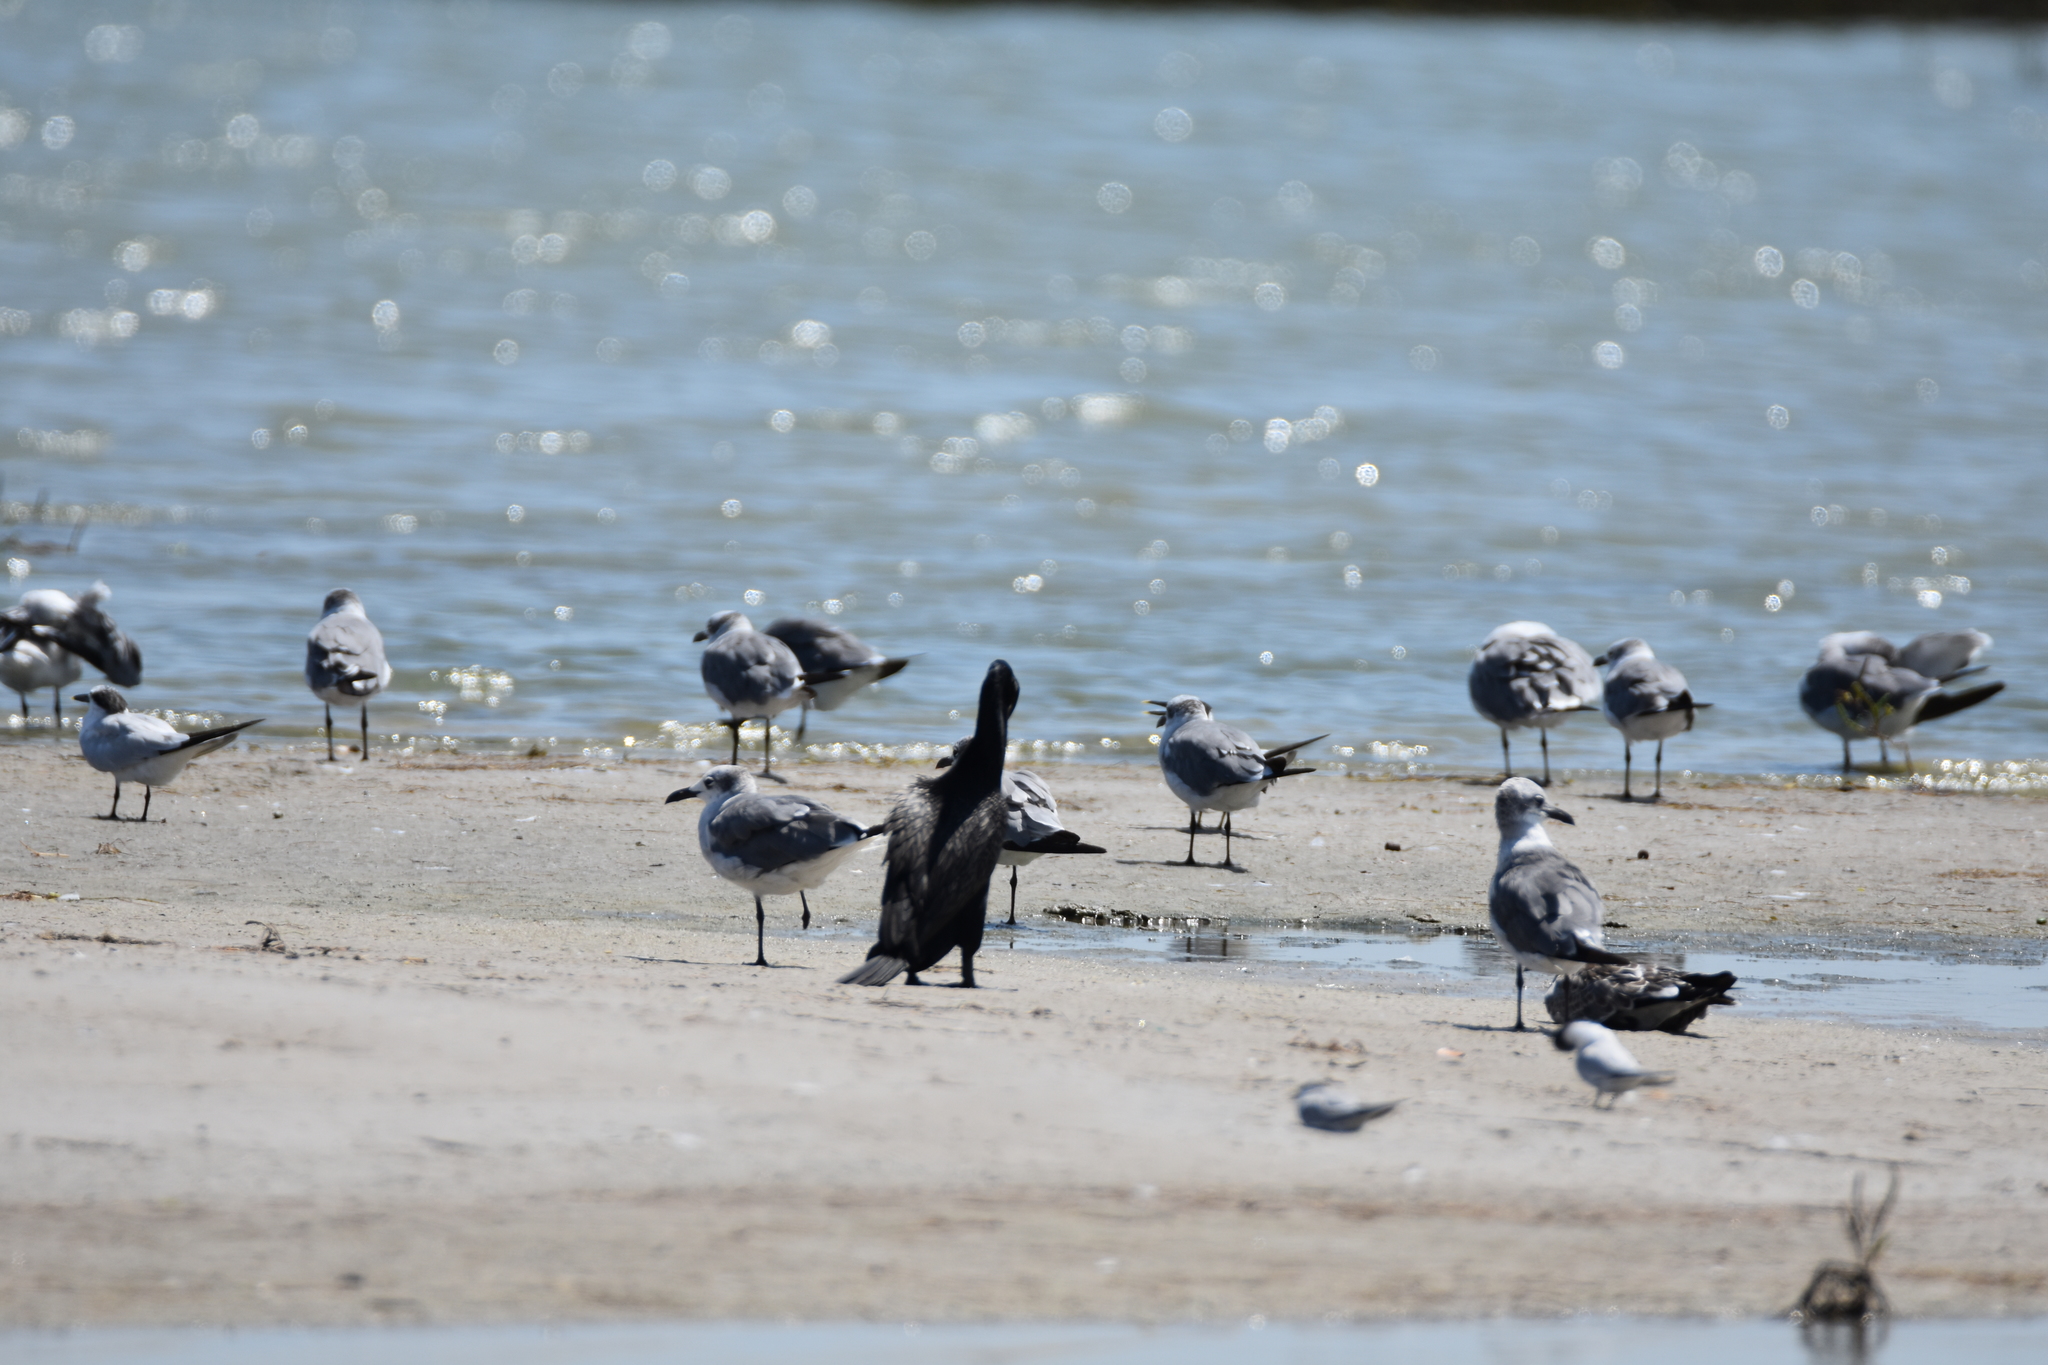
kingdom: Animalia
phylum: Chordata
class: Aves
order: Charadriiformes
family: Laridae
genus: Leucophaeus
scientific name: Leucophaeus atricilla
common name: Laughing gull
